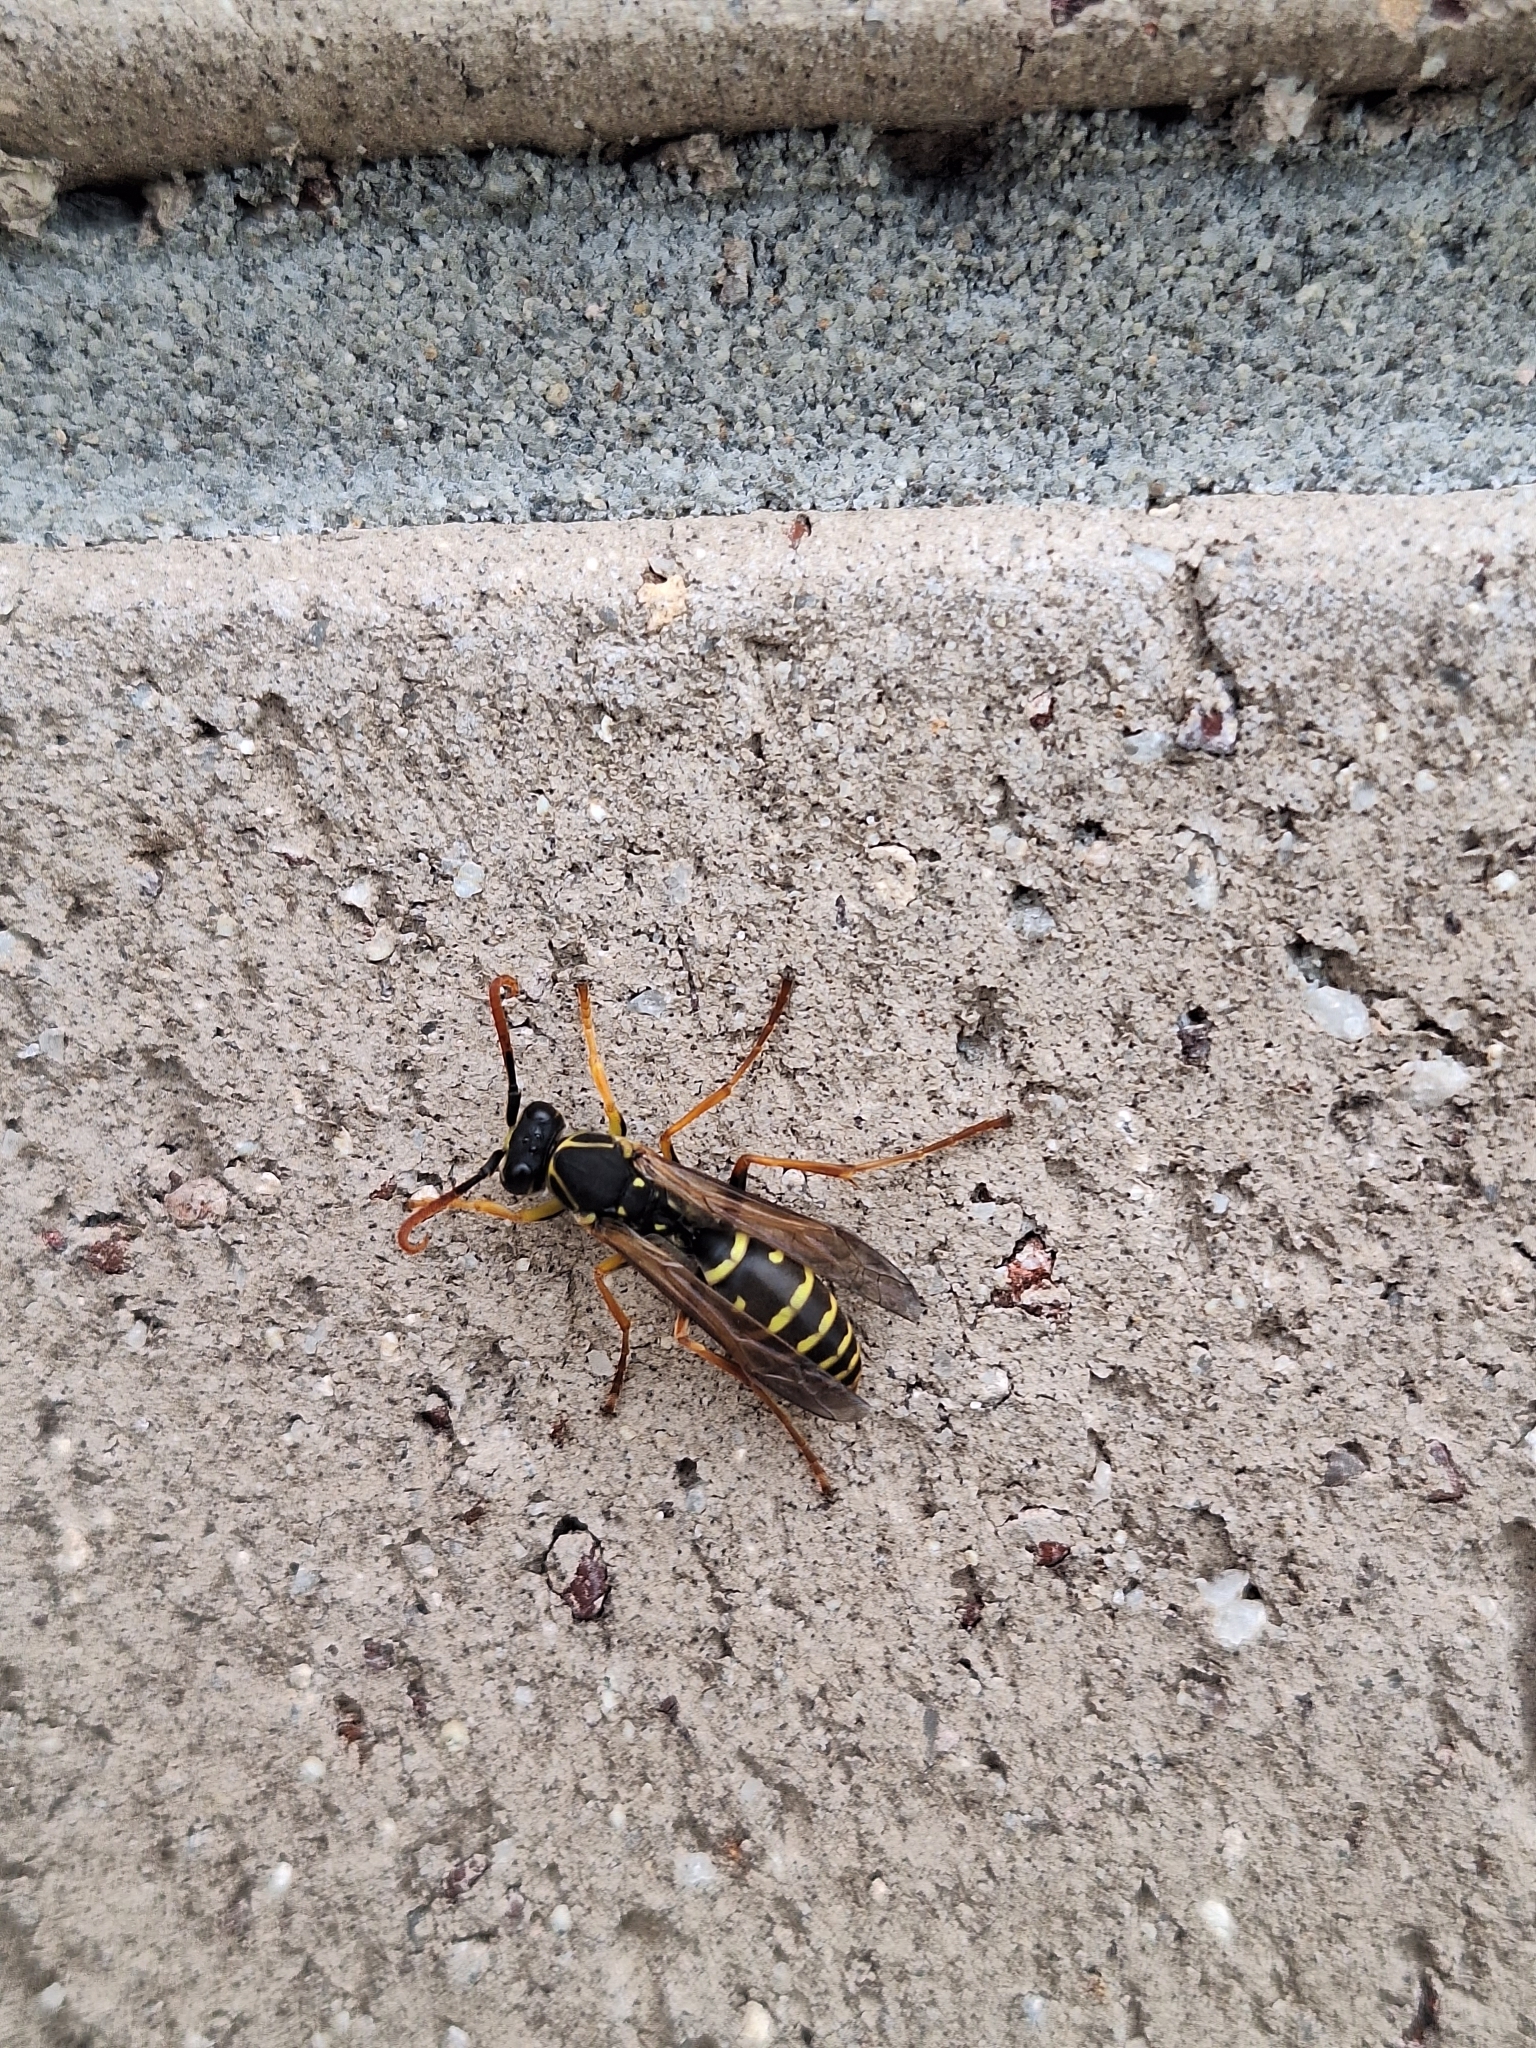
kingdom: Animalia
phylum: Arthropoda
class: Insecta
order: Hymenoptera
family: Eumenidae
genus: Polistes
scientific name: Polistes chinensis
